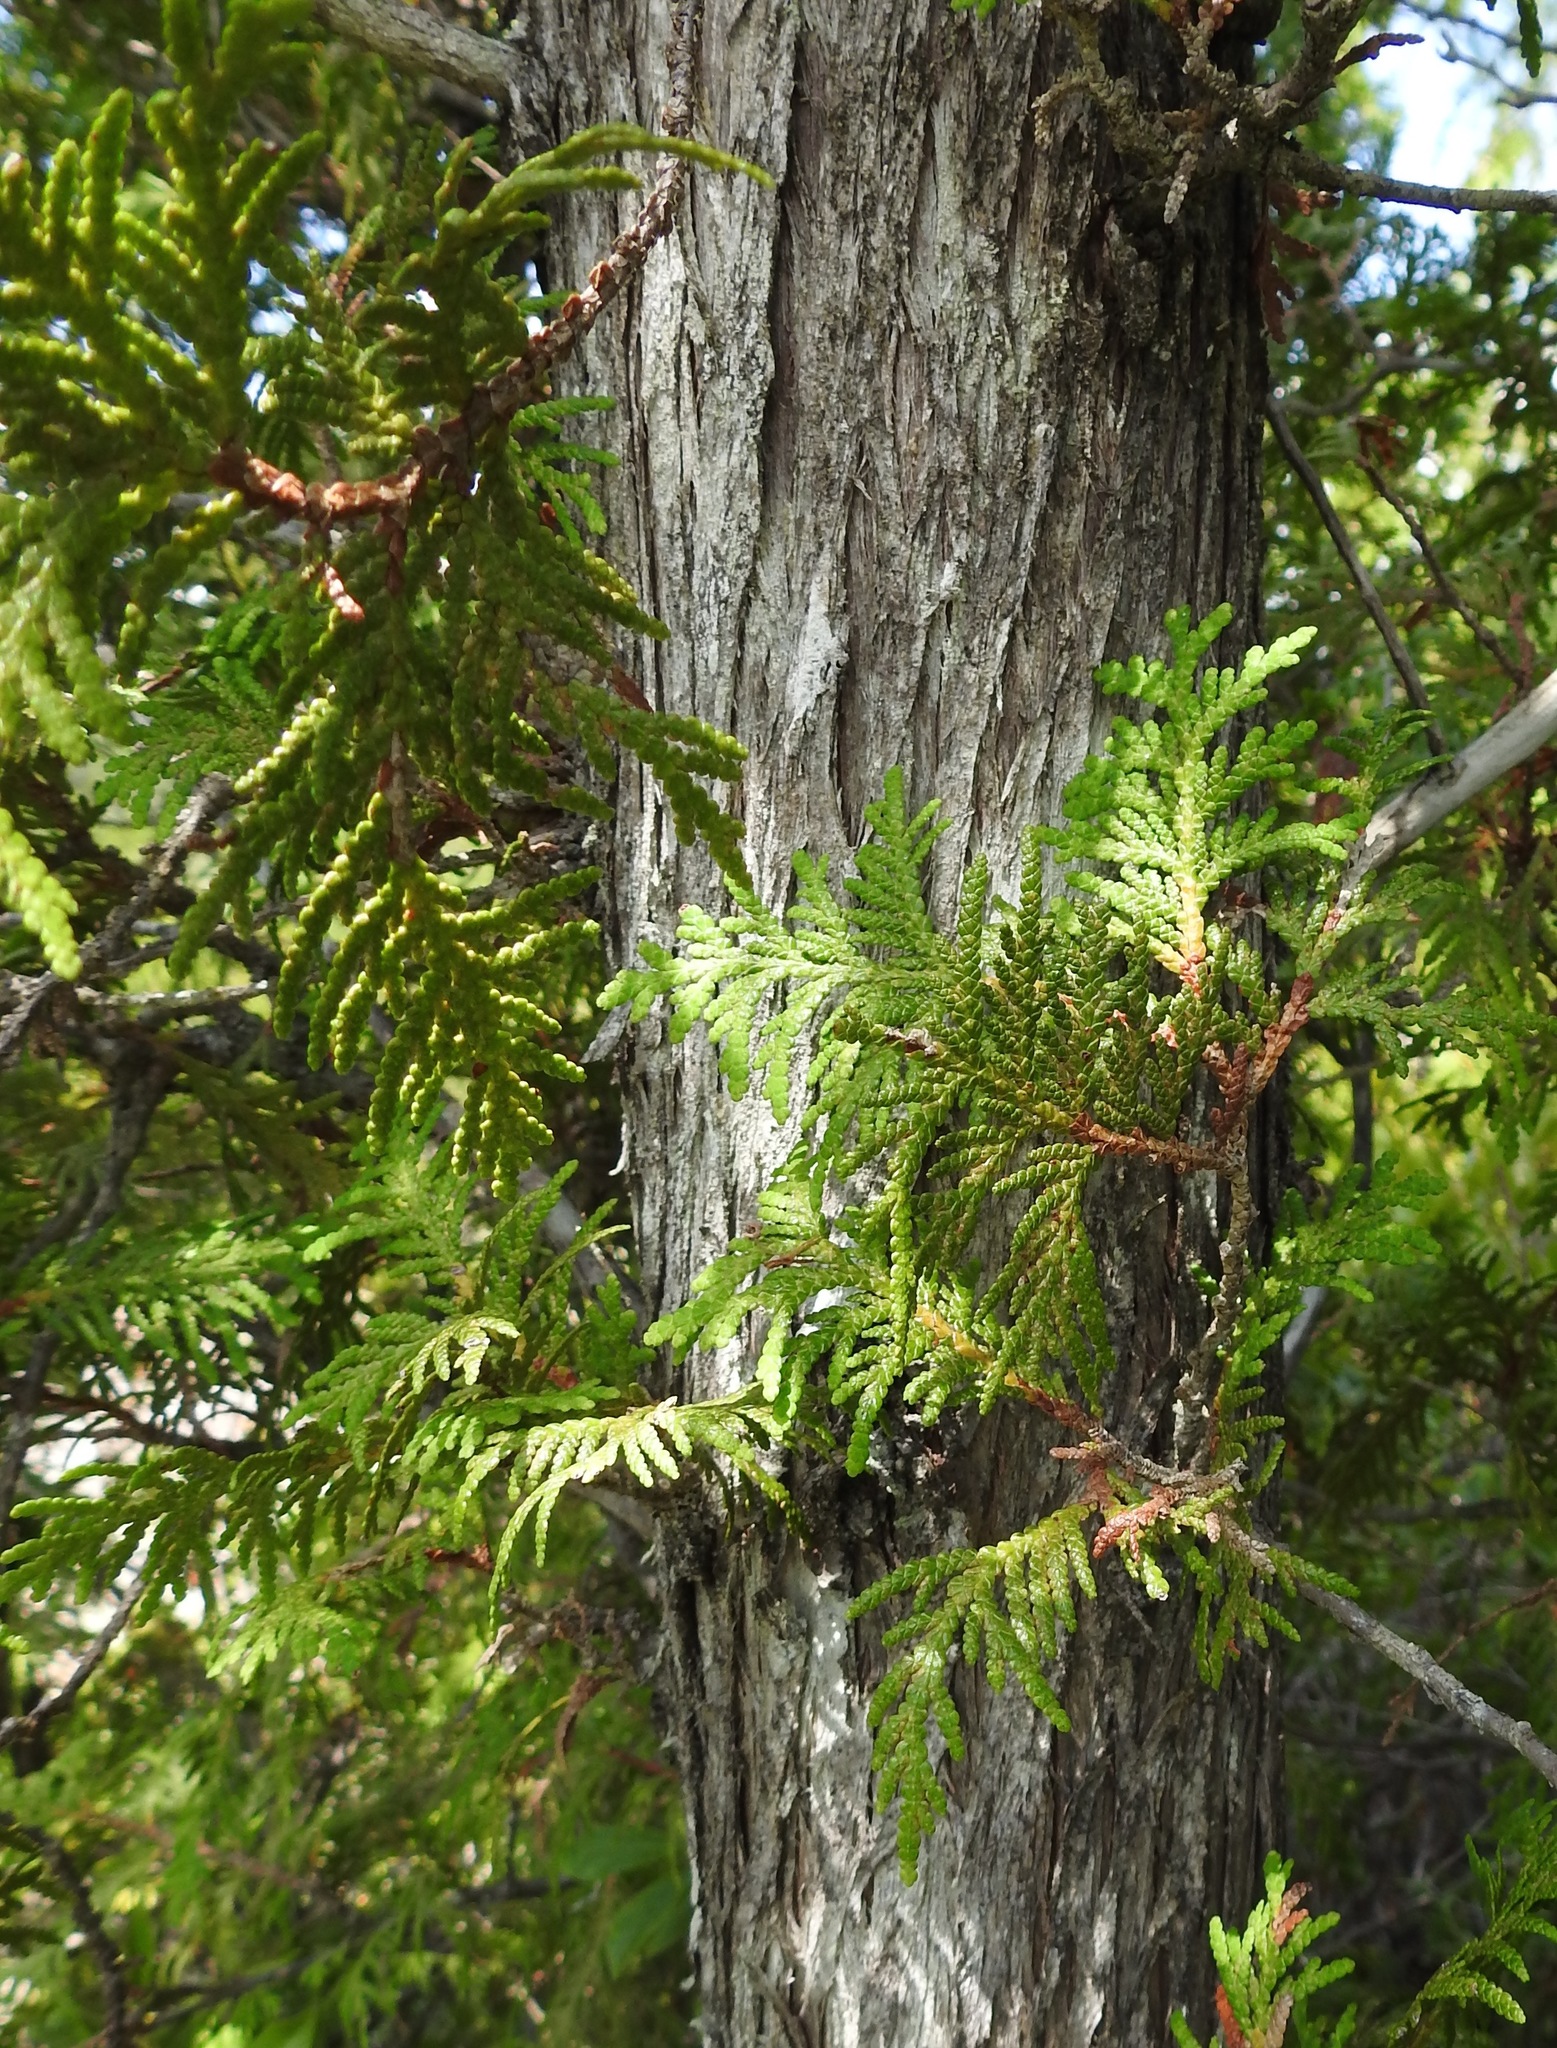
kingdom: Plantae
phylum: Tracheophyta
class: Pinopsida
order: Pinales
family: Cupressaceae
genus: Thuja
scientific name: Thuja occidentalis
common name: Northern white-cedar
